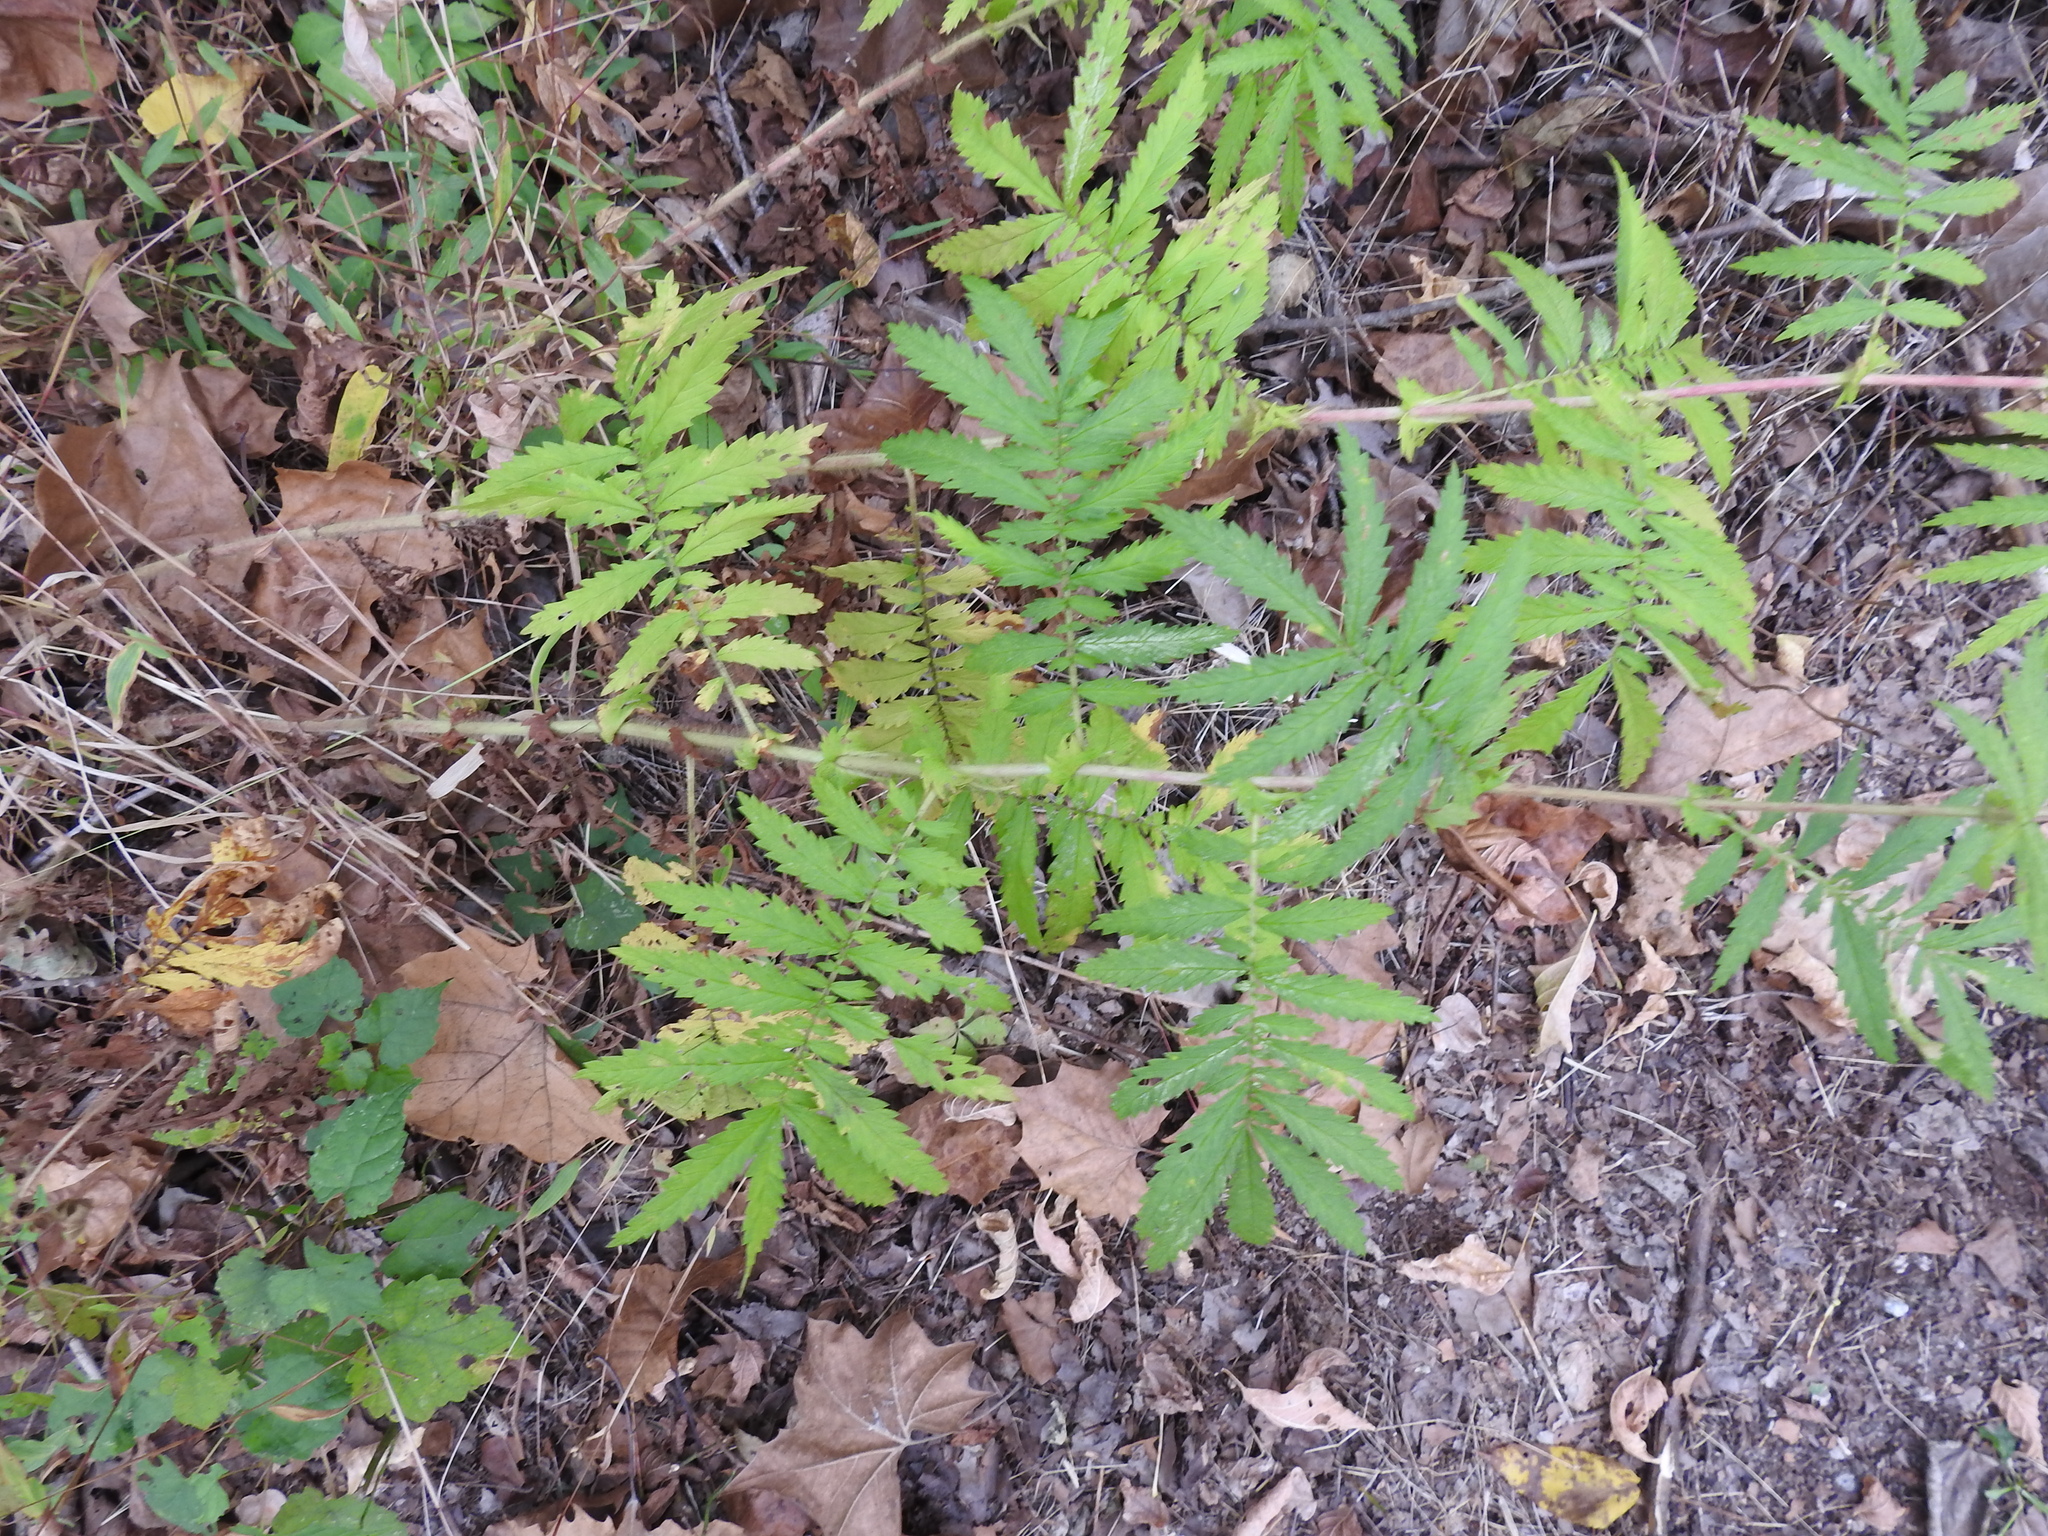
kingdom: Plantae
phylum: Tracheophyta
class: Magnoliopsida
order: Rosales
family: Rosaceae
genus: Agrimonia
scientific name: Agrimonia parviflora
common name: Harvest-lice
